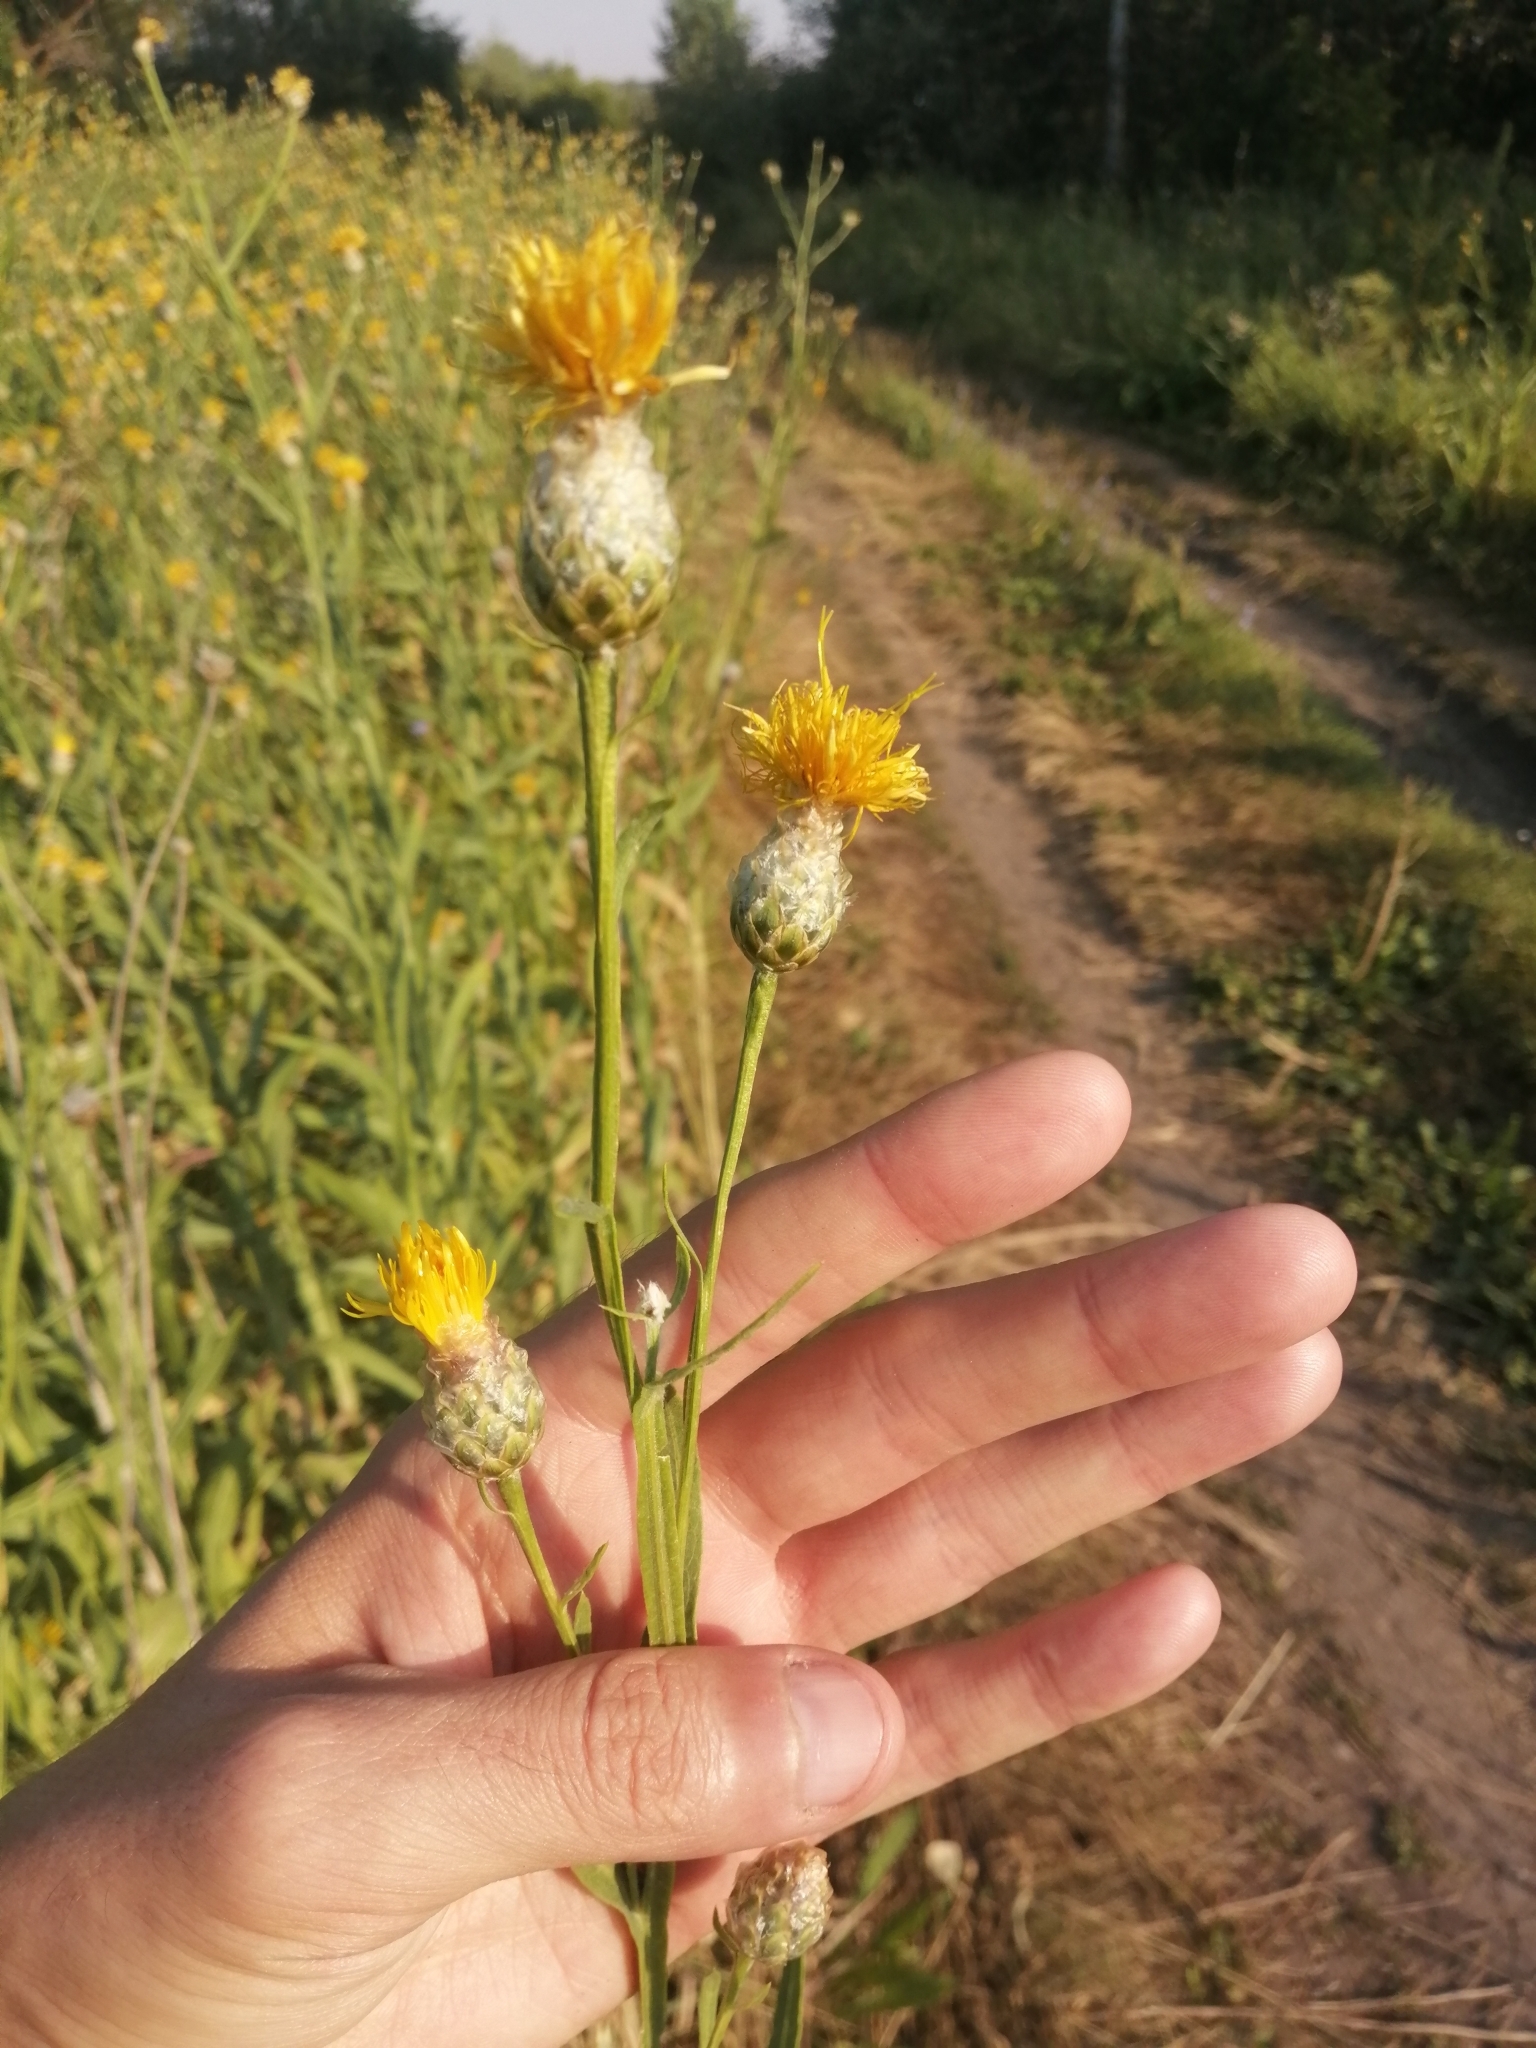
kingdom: Plantae
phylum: Tracheophyta
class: Magnoliopsida
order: Asterales
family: Asteraceae
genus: Centaurea
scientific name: Centaurea glastifolia
